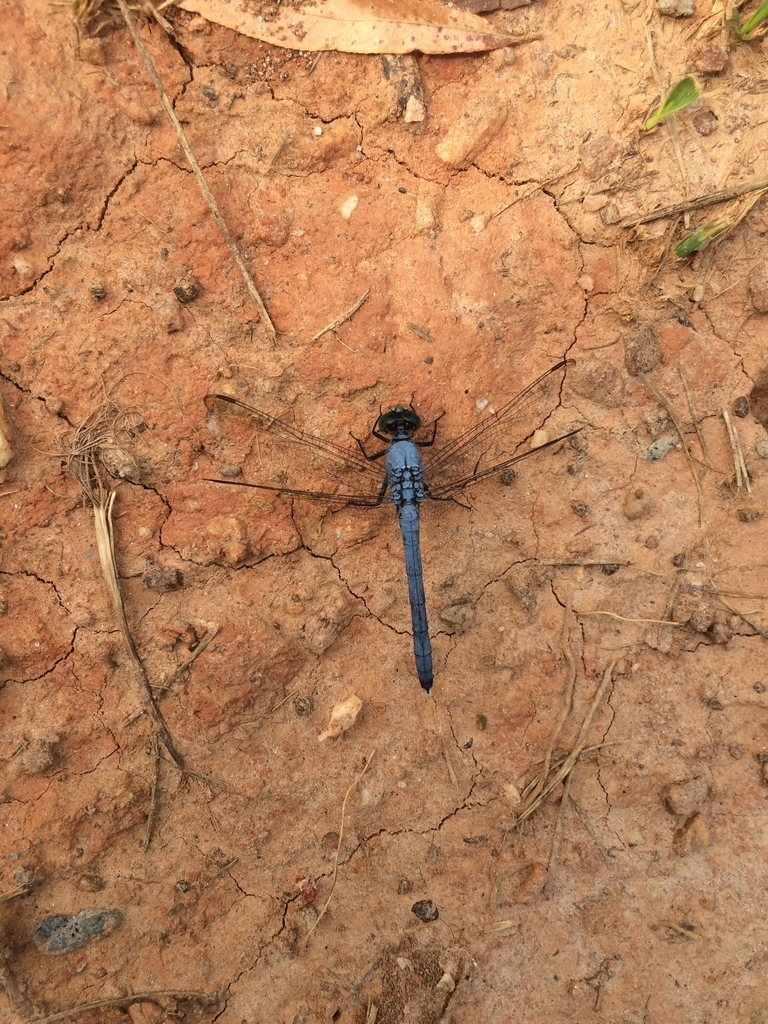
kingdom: Animalia
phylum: Arthropoda
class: Insecta
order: Odonata
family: Libellulidae
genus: Erythemis
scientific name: Erythemis simplicicollis
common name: Eastern pondhawk
